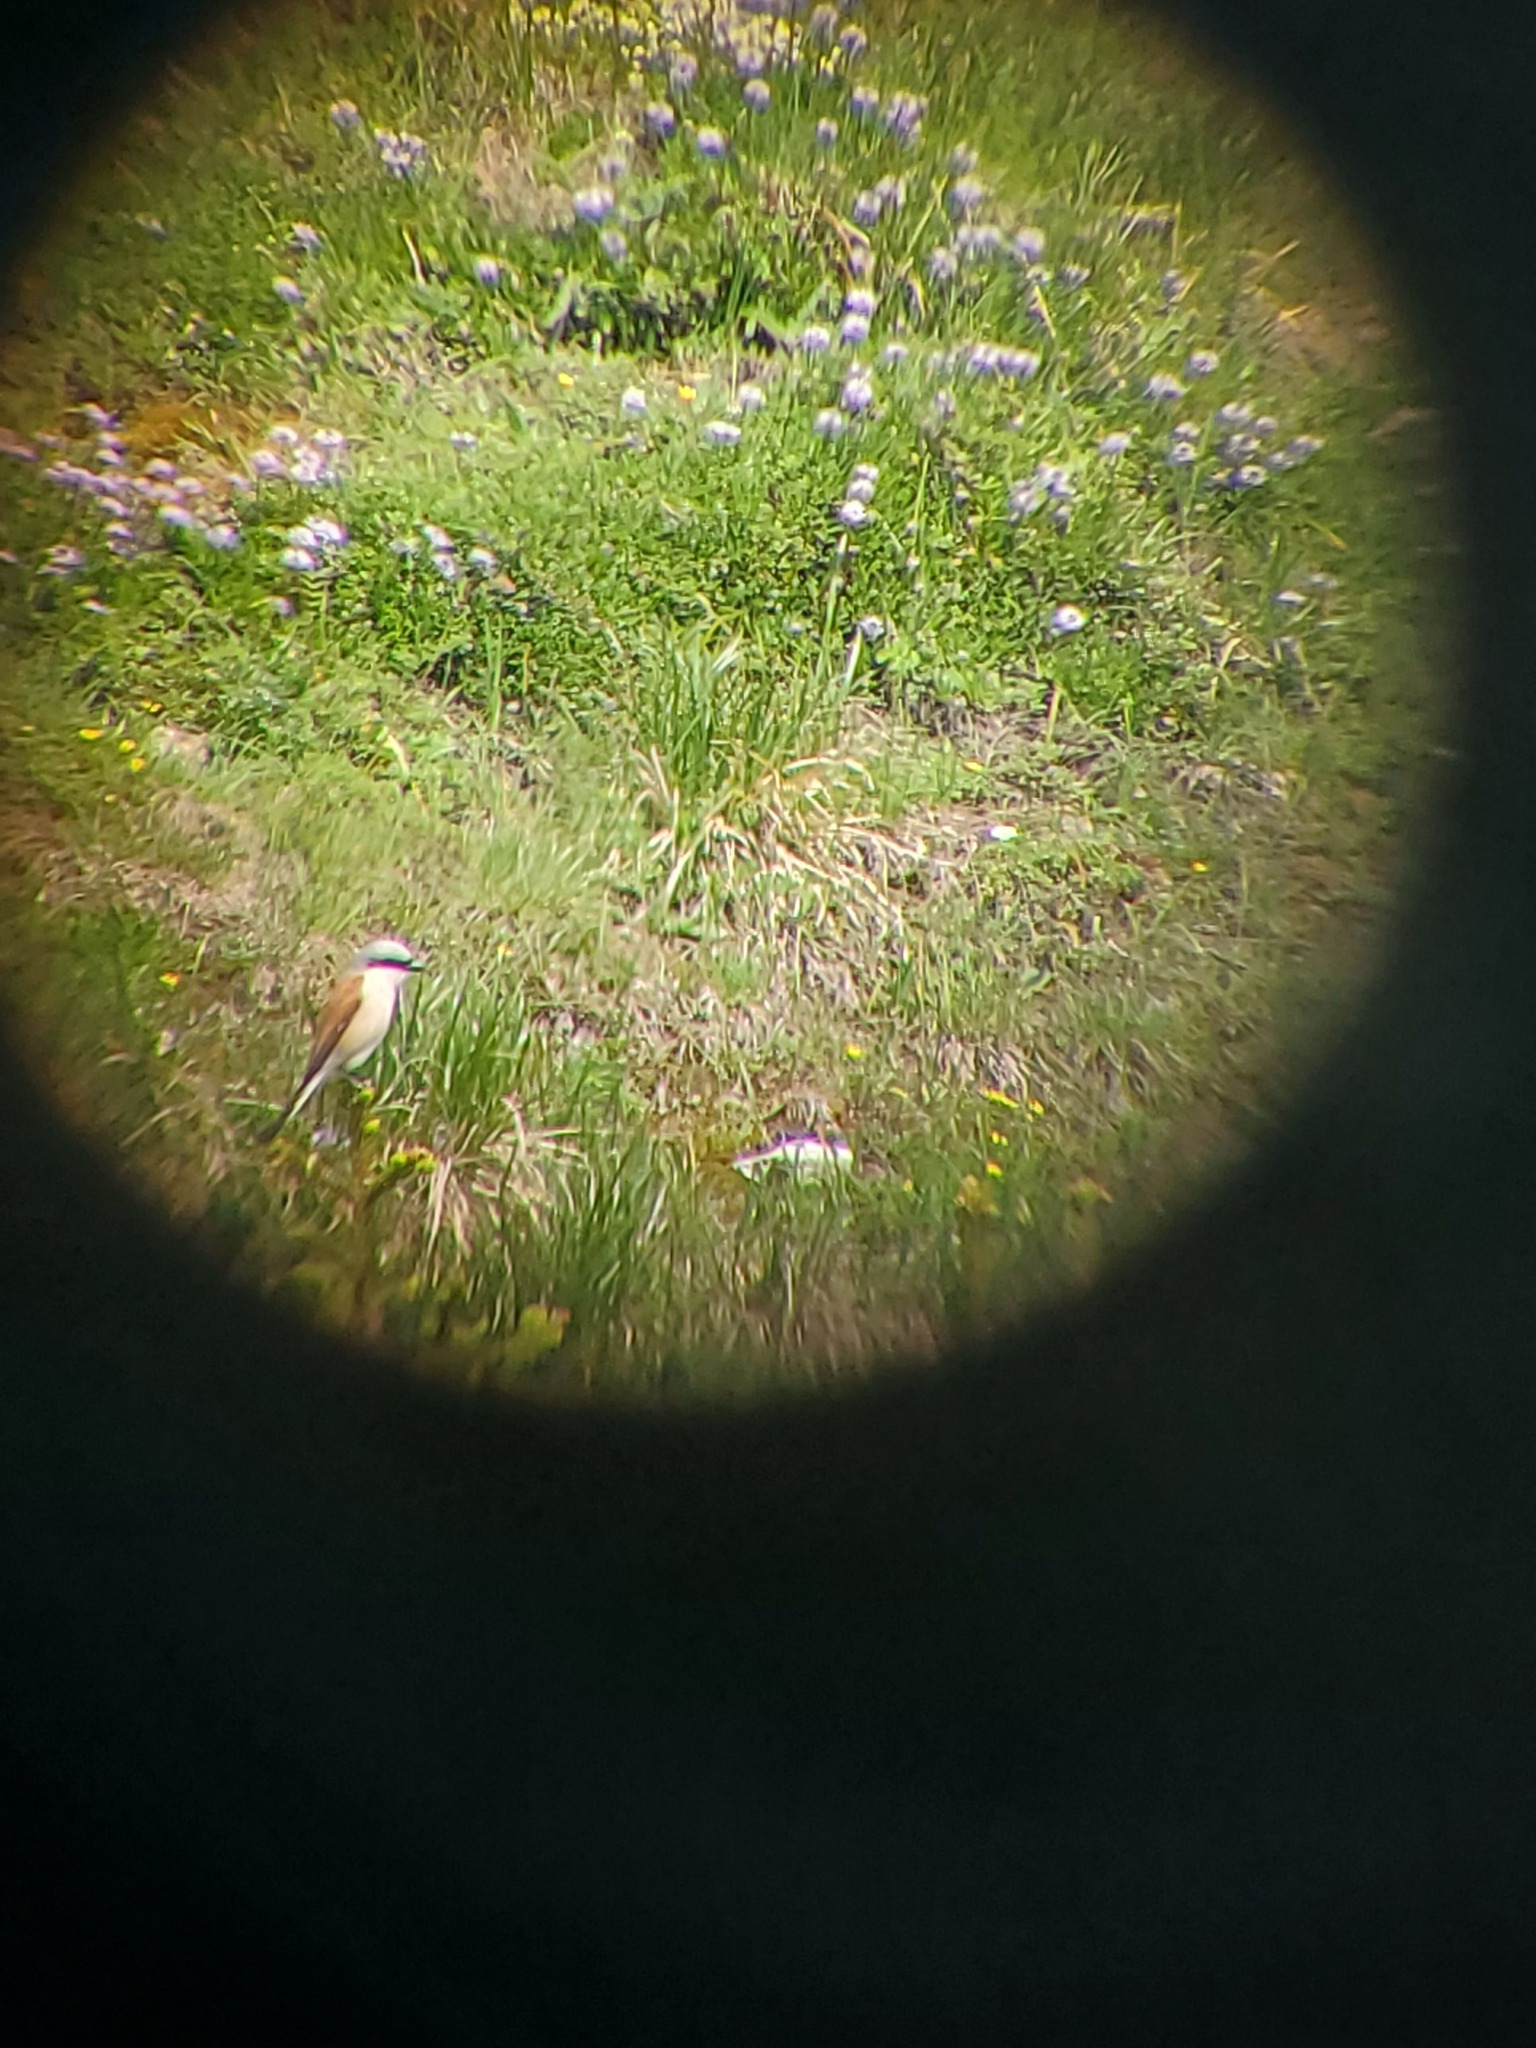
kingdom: Animalia
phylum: Chordata
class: Aves
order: Passeriformes
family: Laniidae
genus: Lanius
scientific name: Lanius collurio
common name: Red-backed shrike
